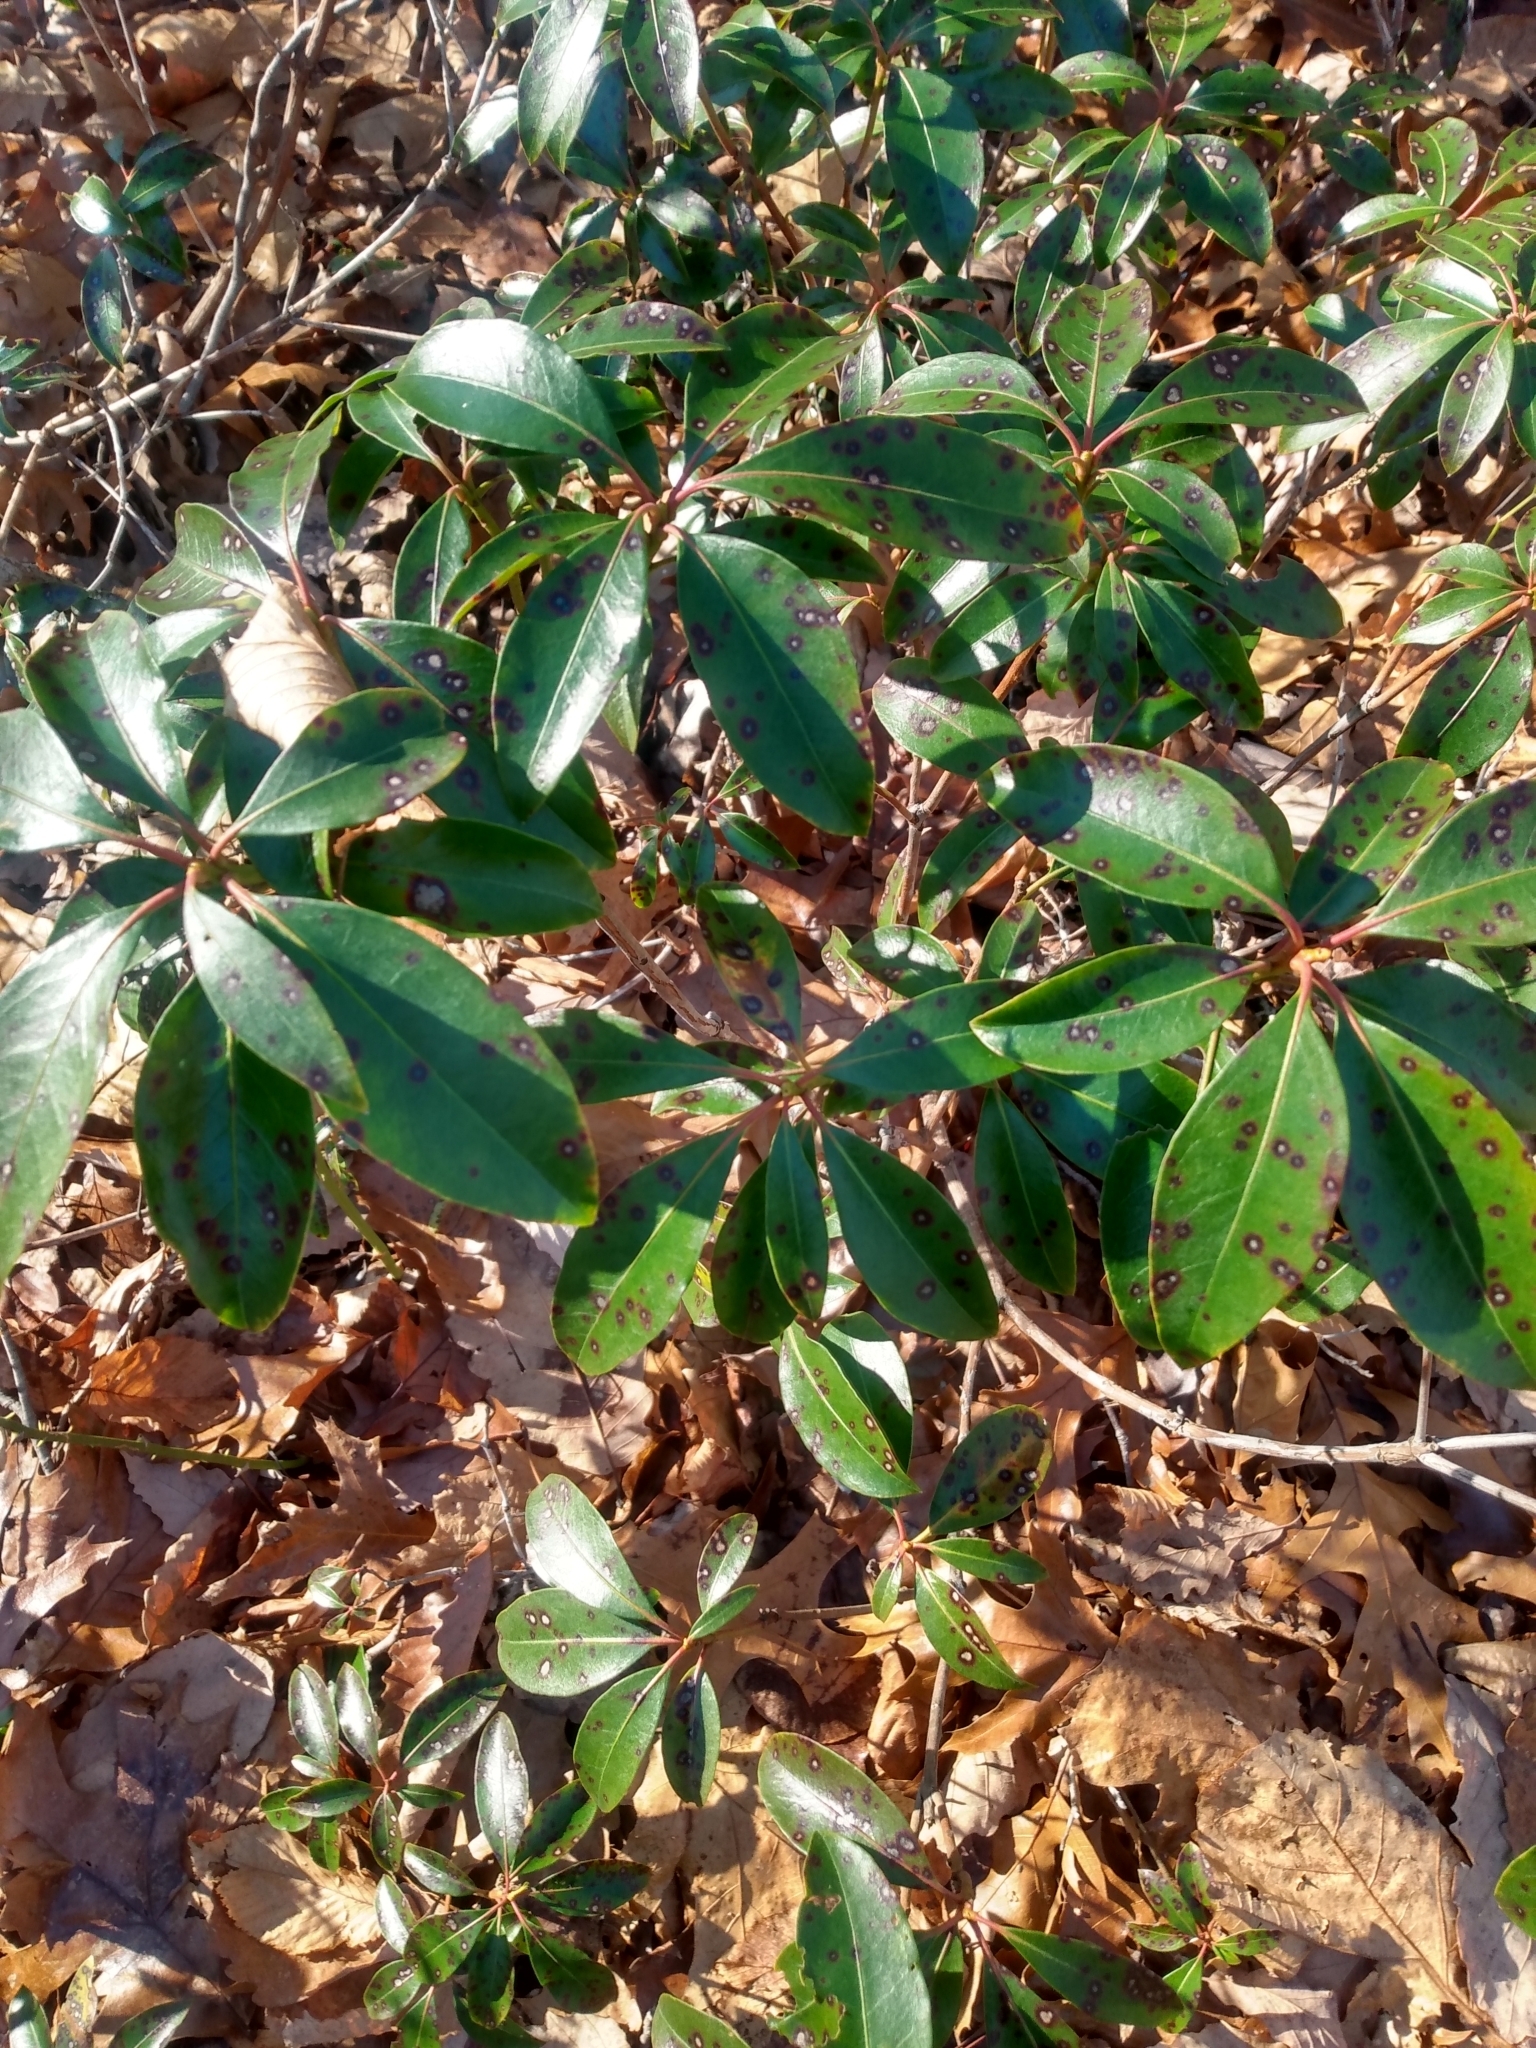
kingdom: Plantae
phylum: Tracheophyta
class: Magnoliopsida
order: Ericales
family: Ericaceae
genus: Kalmia
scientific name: Kalmia latifolia
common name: Mountain-laurel
